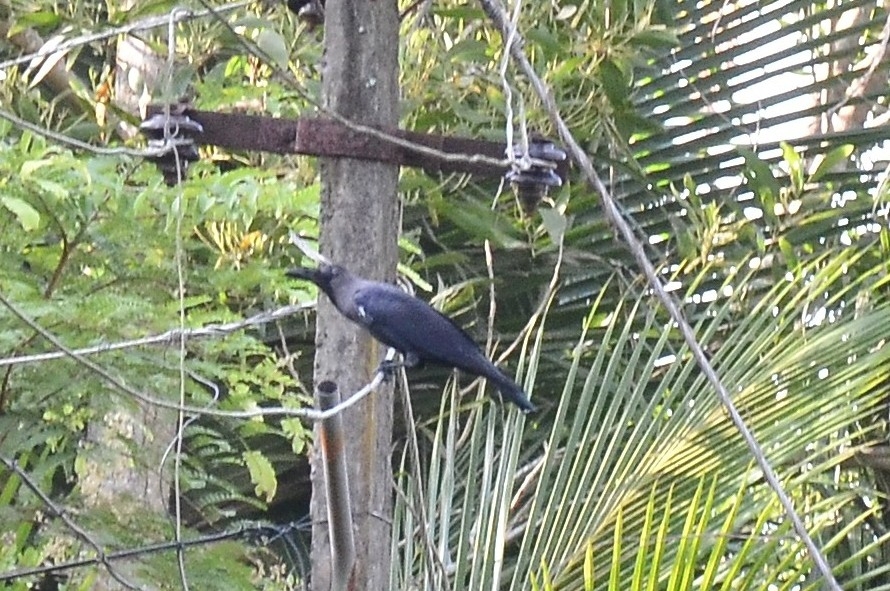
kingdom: Animalia
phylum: Chordata
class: Aves
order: Passeriformes
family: Corvidae
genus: Corvus
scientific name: Corvus splendens
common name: House crow
